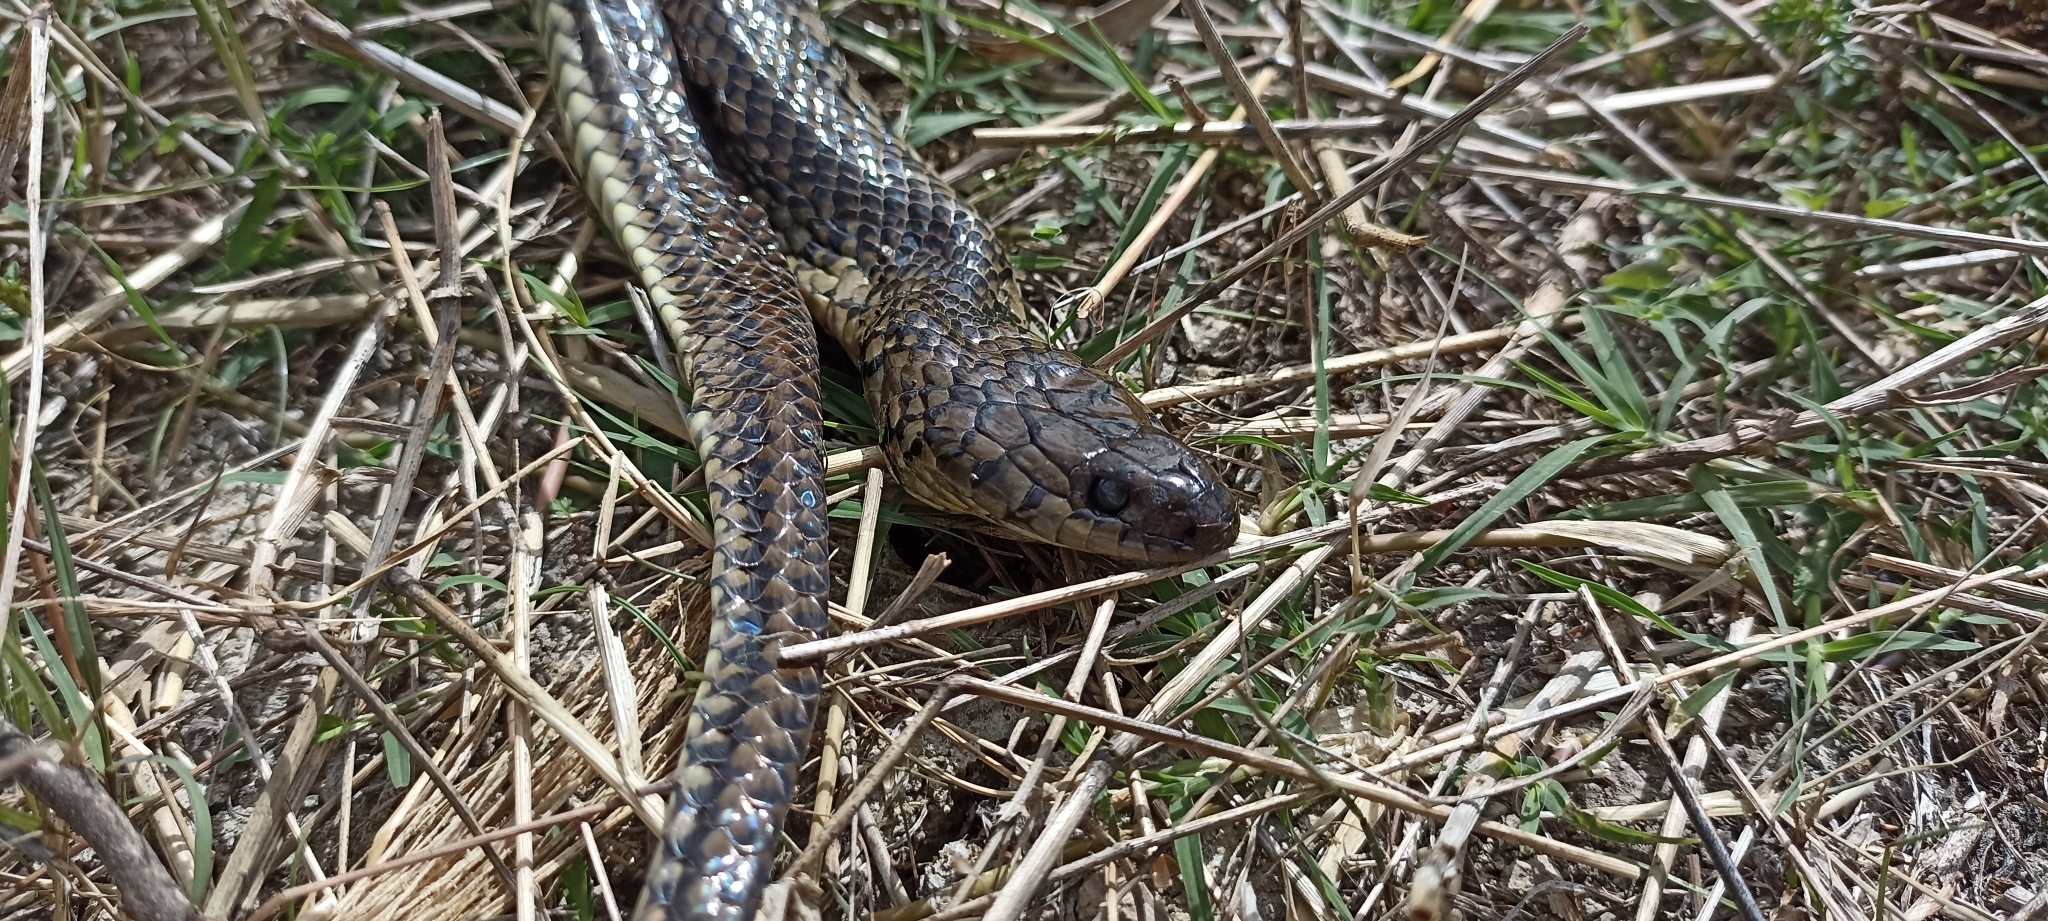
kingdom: Animalia
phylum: Chordata
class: Squamata
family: Colubridae
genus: Erythrolamprus
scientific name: Erythrolamprus semiaureus
